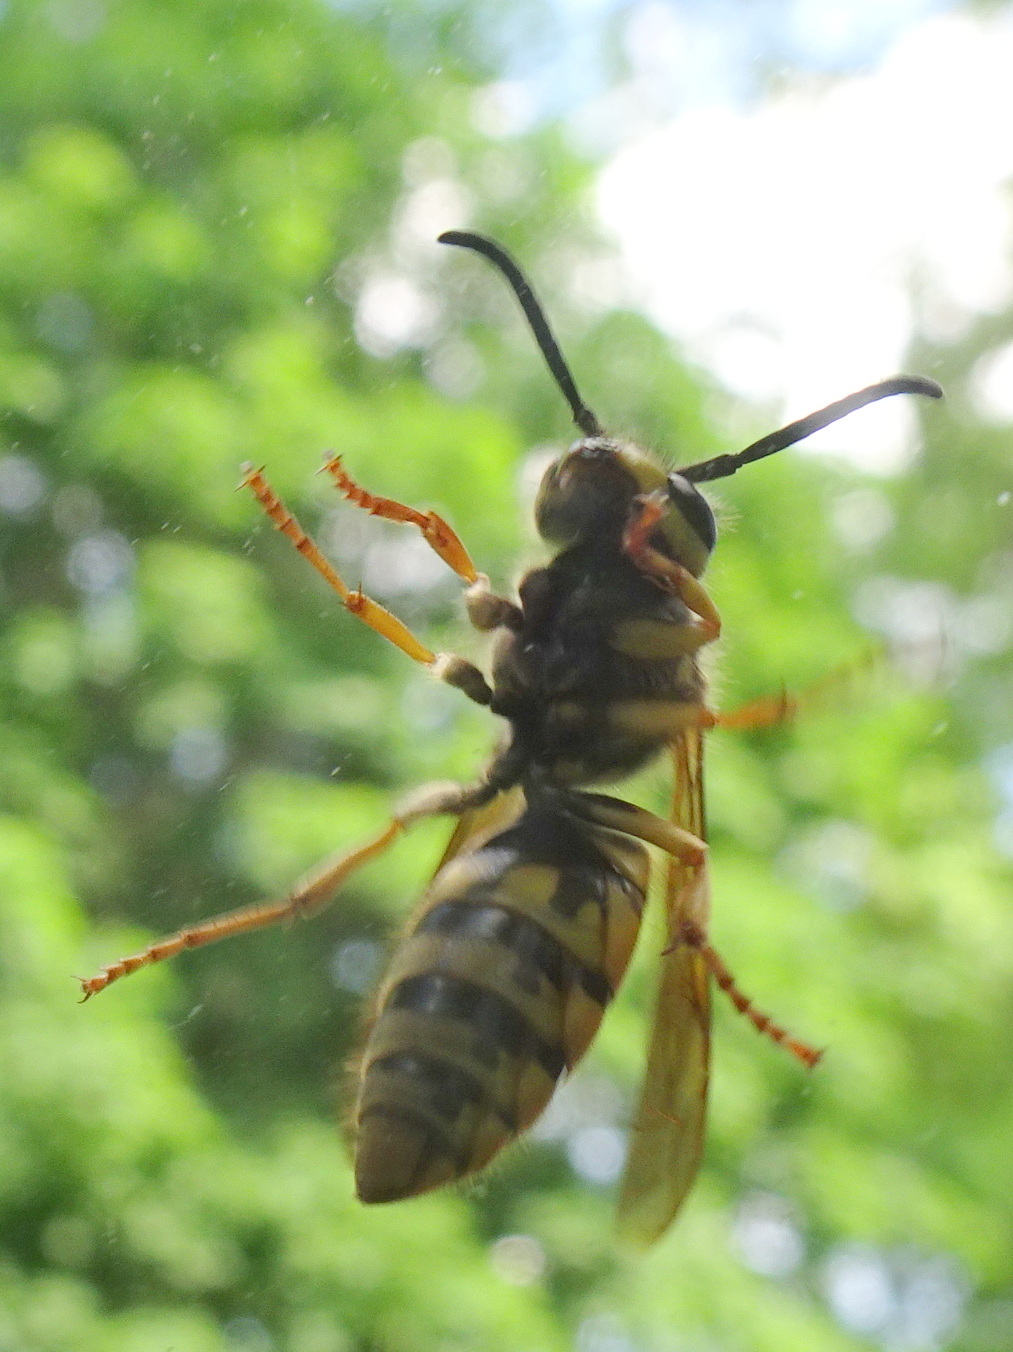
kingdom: Animalia
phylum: Arthropoda
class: Insecta
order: Hymenoptera
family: Vespidae
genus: Vespula
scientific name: Vespula
